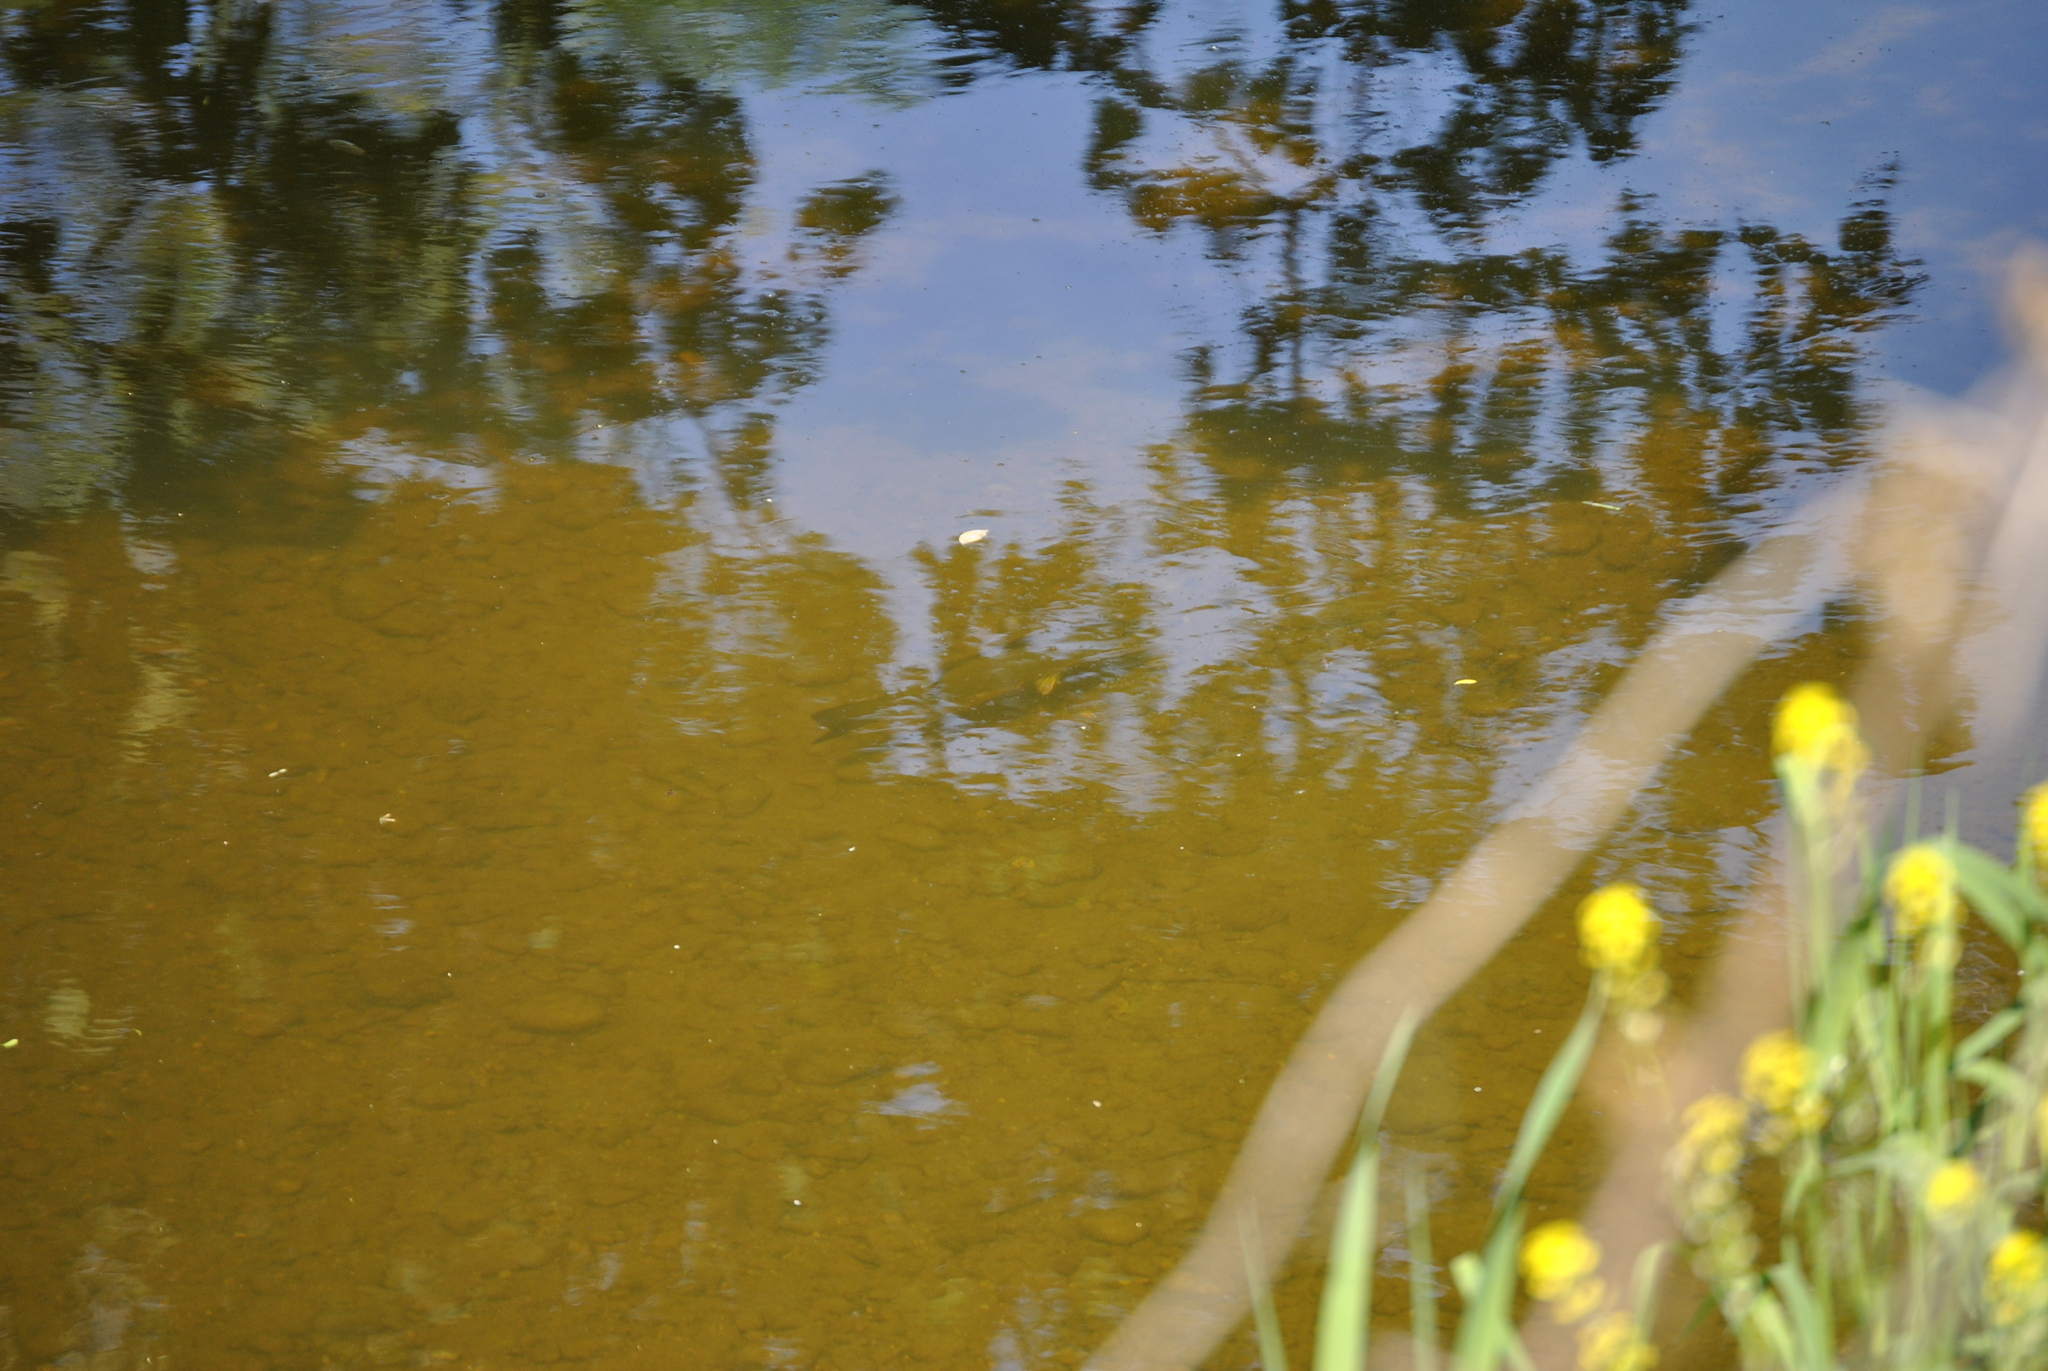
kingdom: Animalia
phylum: Chordata
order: Perciformes
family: Centrarchidae
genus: Micropterus
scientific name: Micropterus dolomieu
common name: Smallmouth bass
